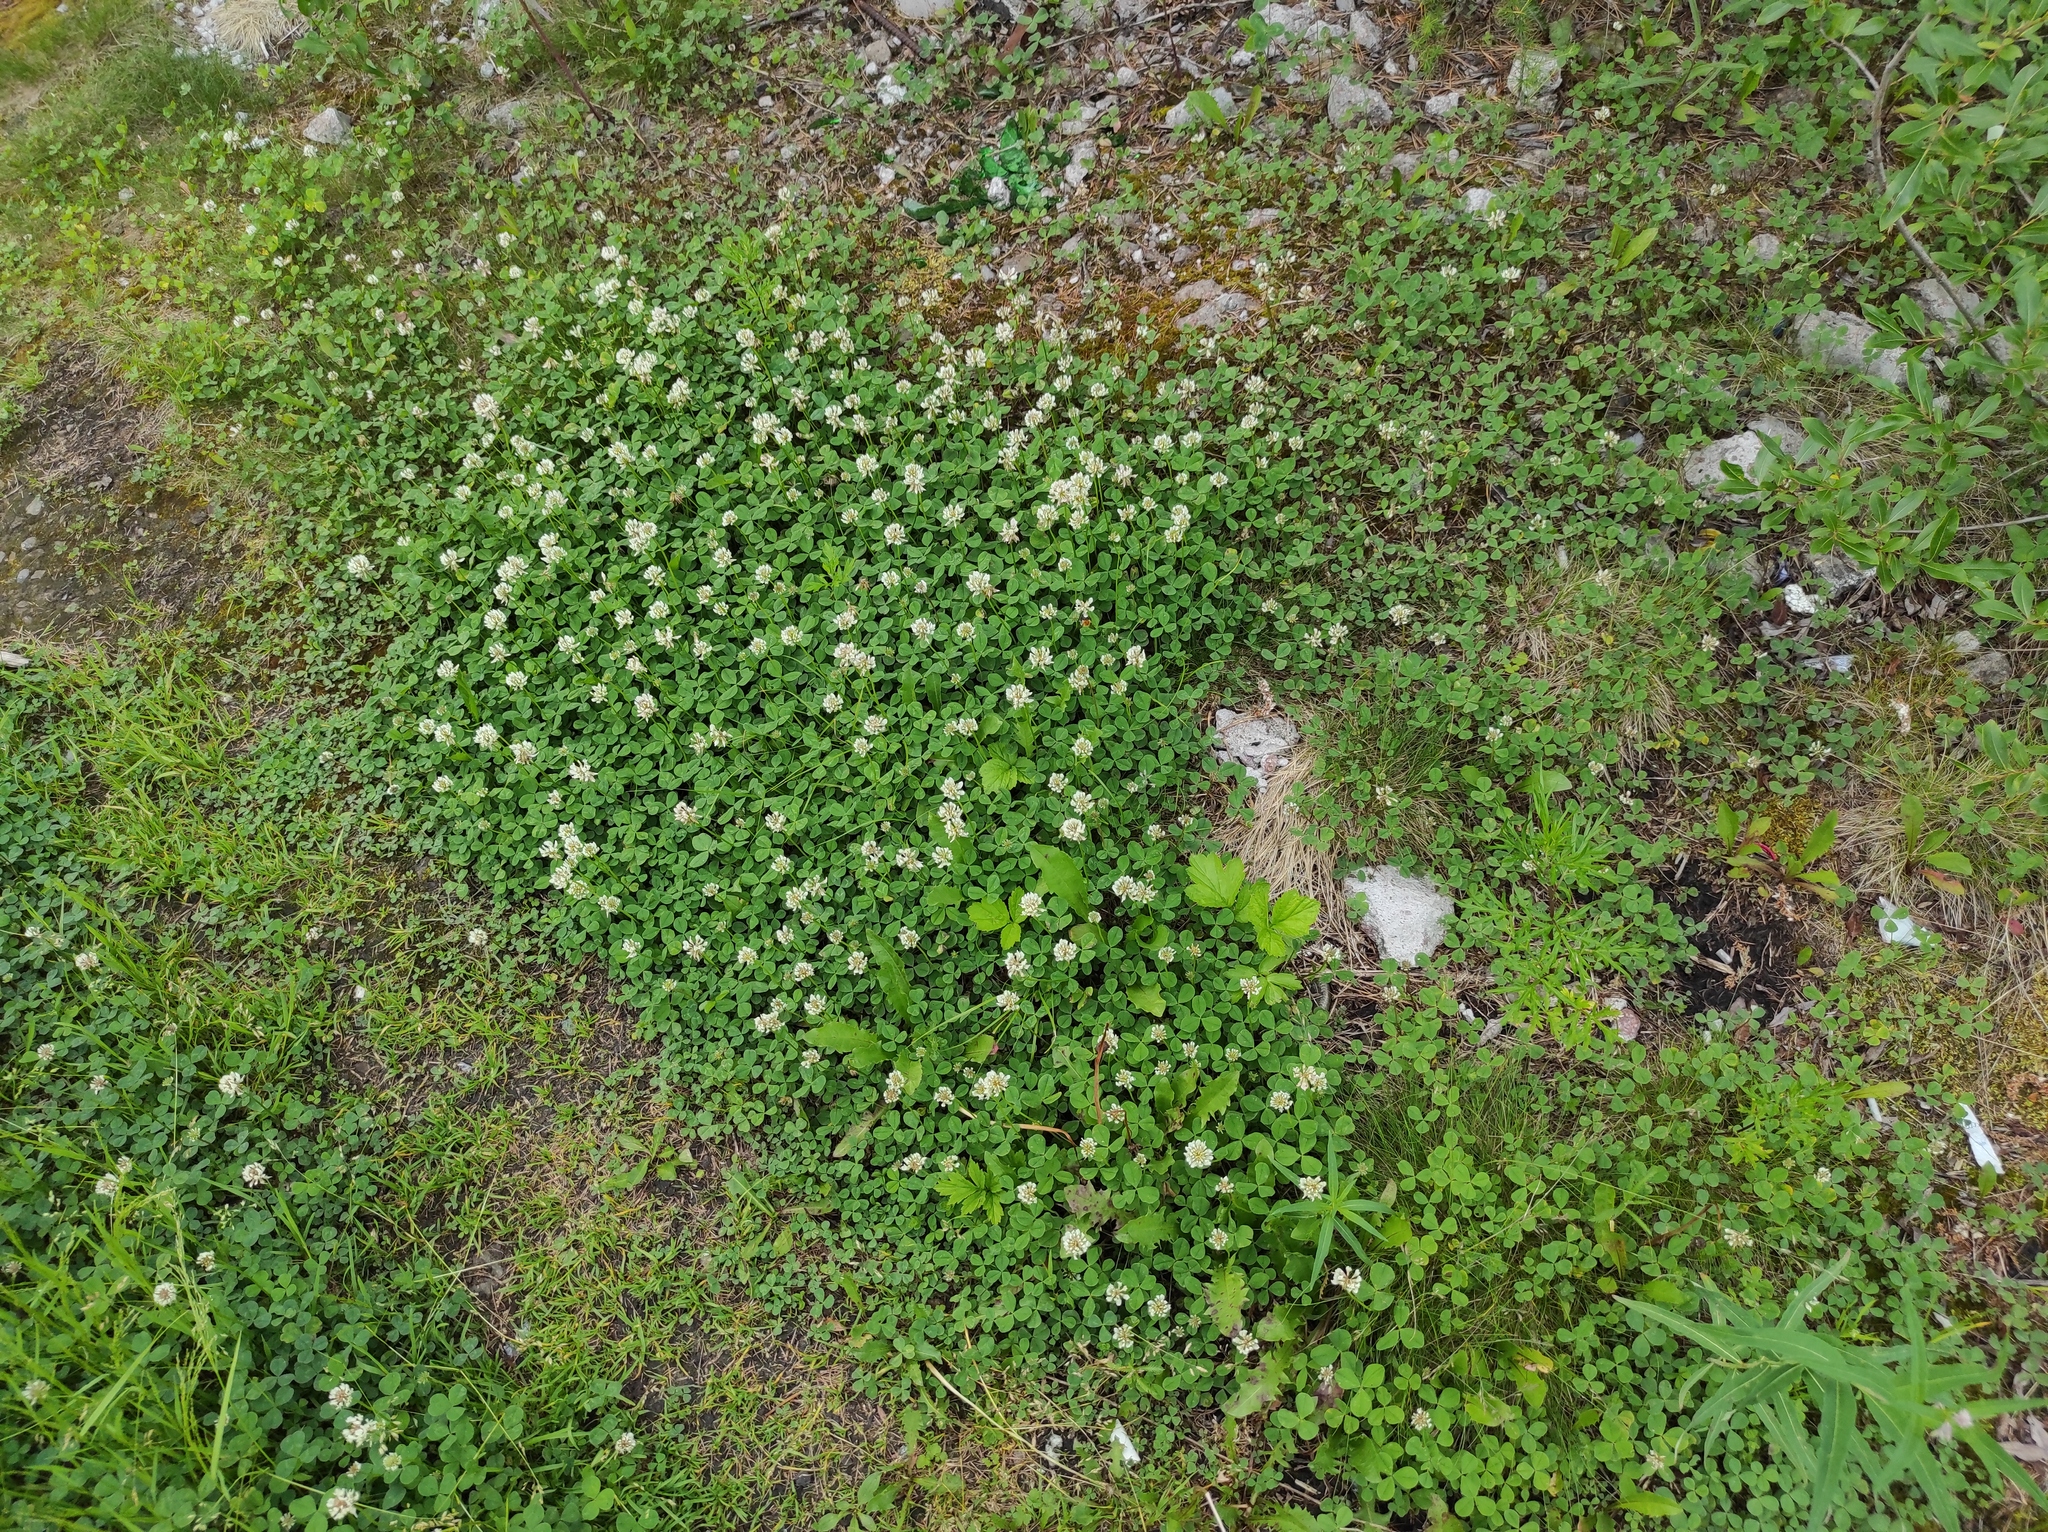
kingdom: Plantae
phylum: Tracheophyta
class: Magnoliopsida
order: Fabales
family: Fabaceae
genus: Trifolium
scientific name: Trifolium repens
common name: White clover
